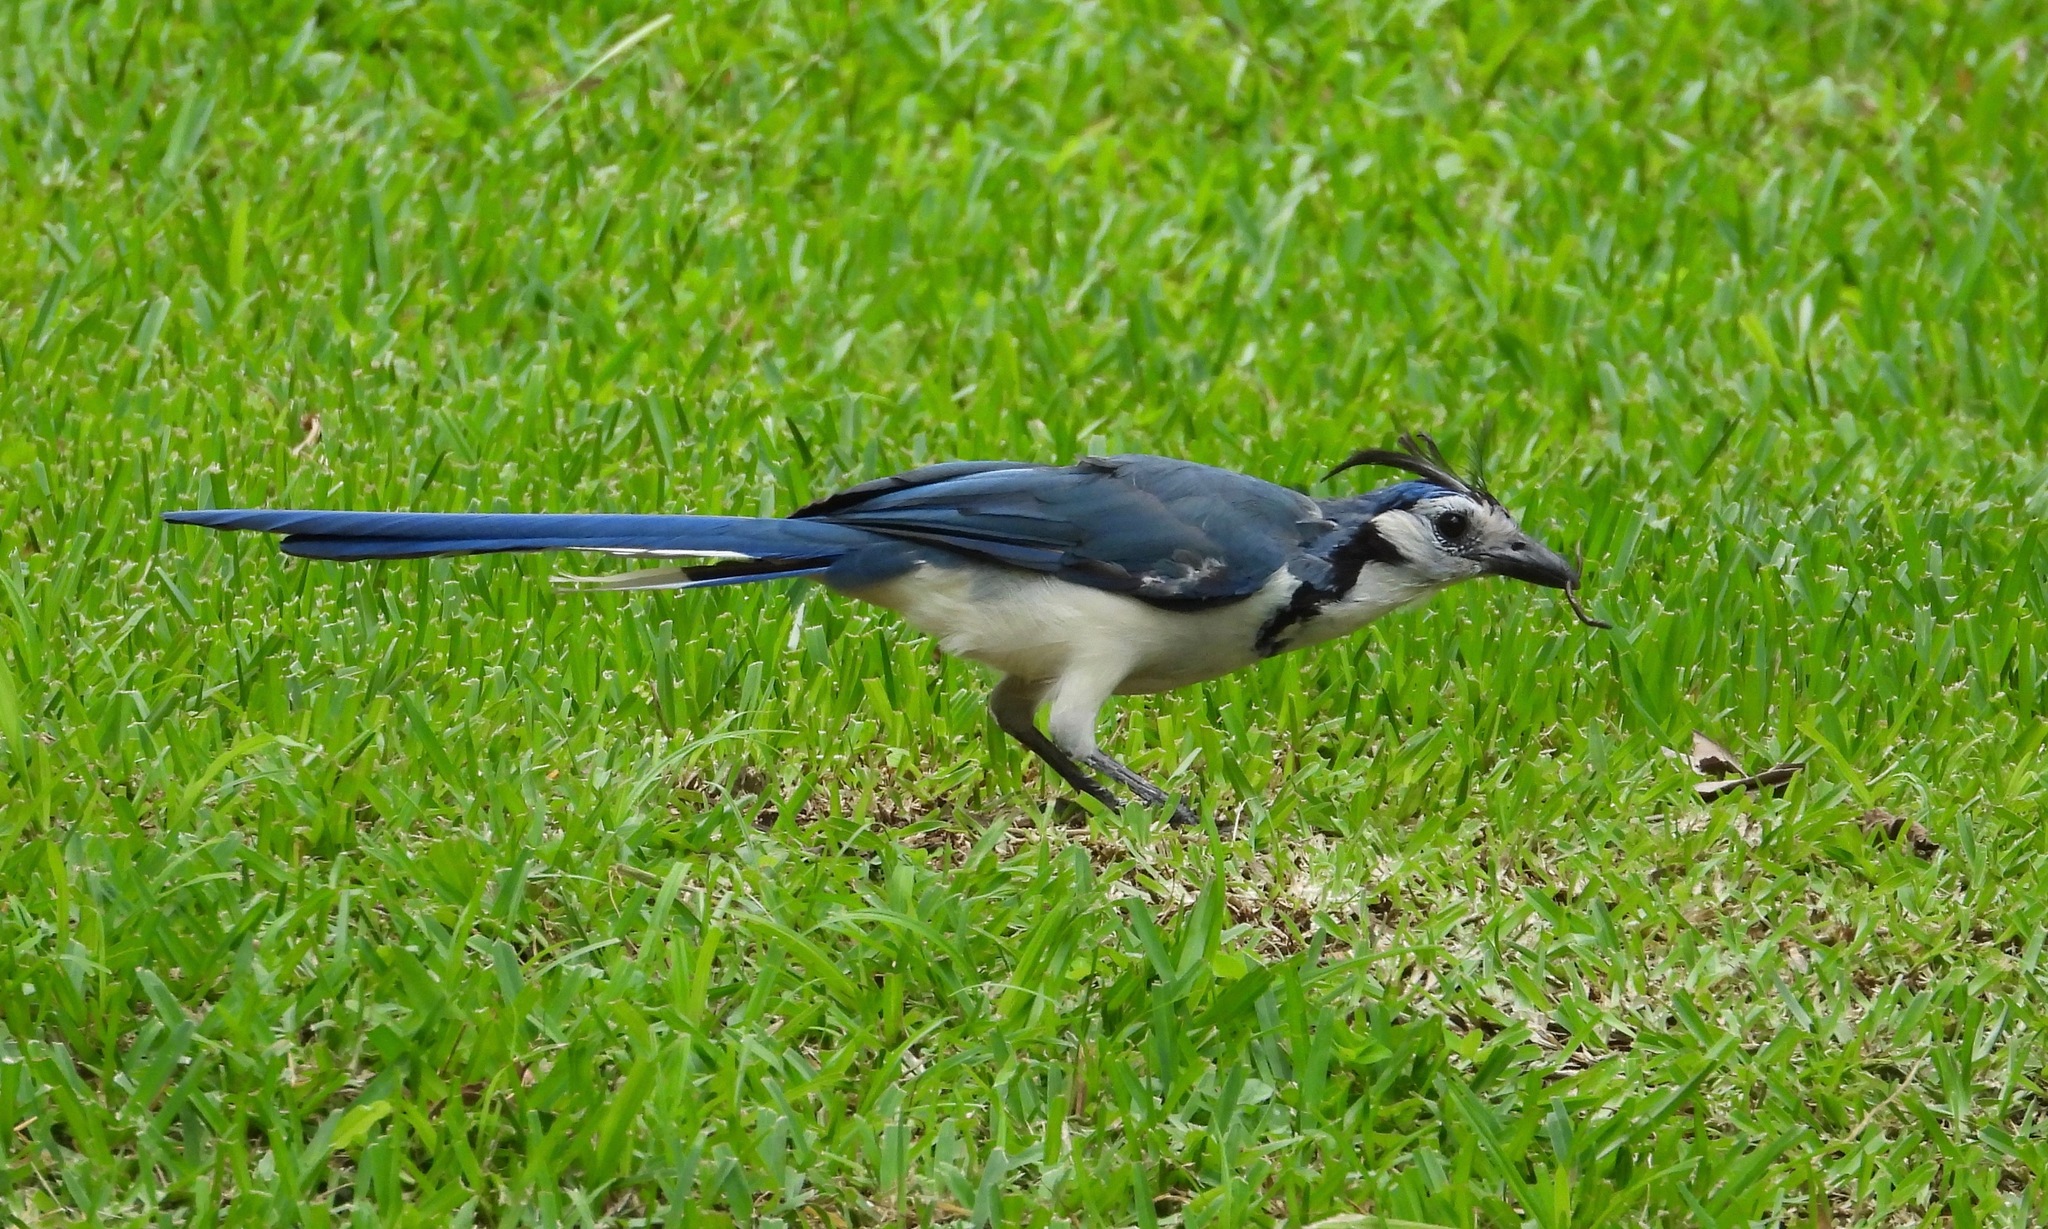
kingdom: Animalia
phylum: Chordata
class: Aves
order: Passeriformes
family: Corvidae
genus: Calocitta
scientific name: Calocitta formosa
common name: White-throated magpie-jay
